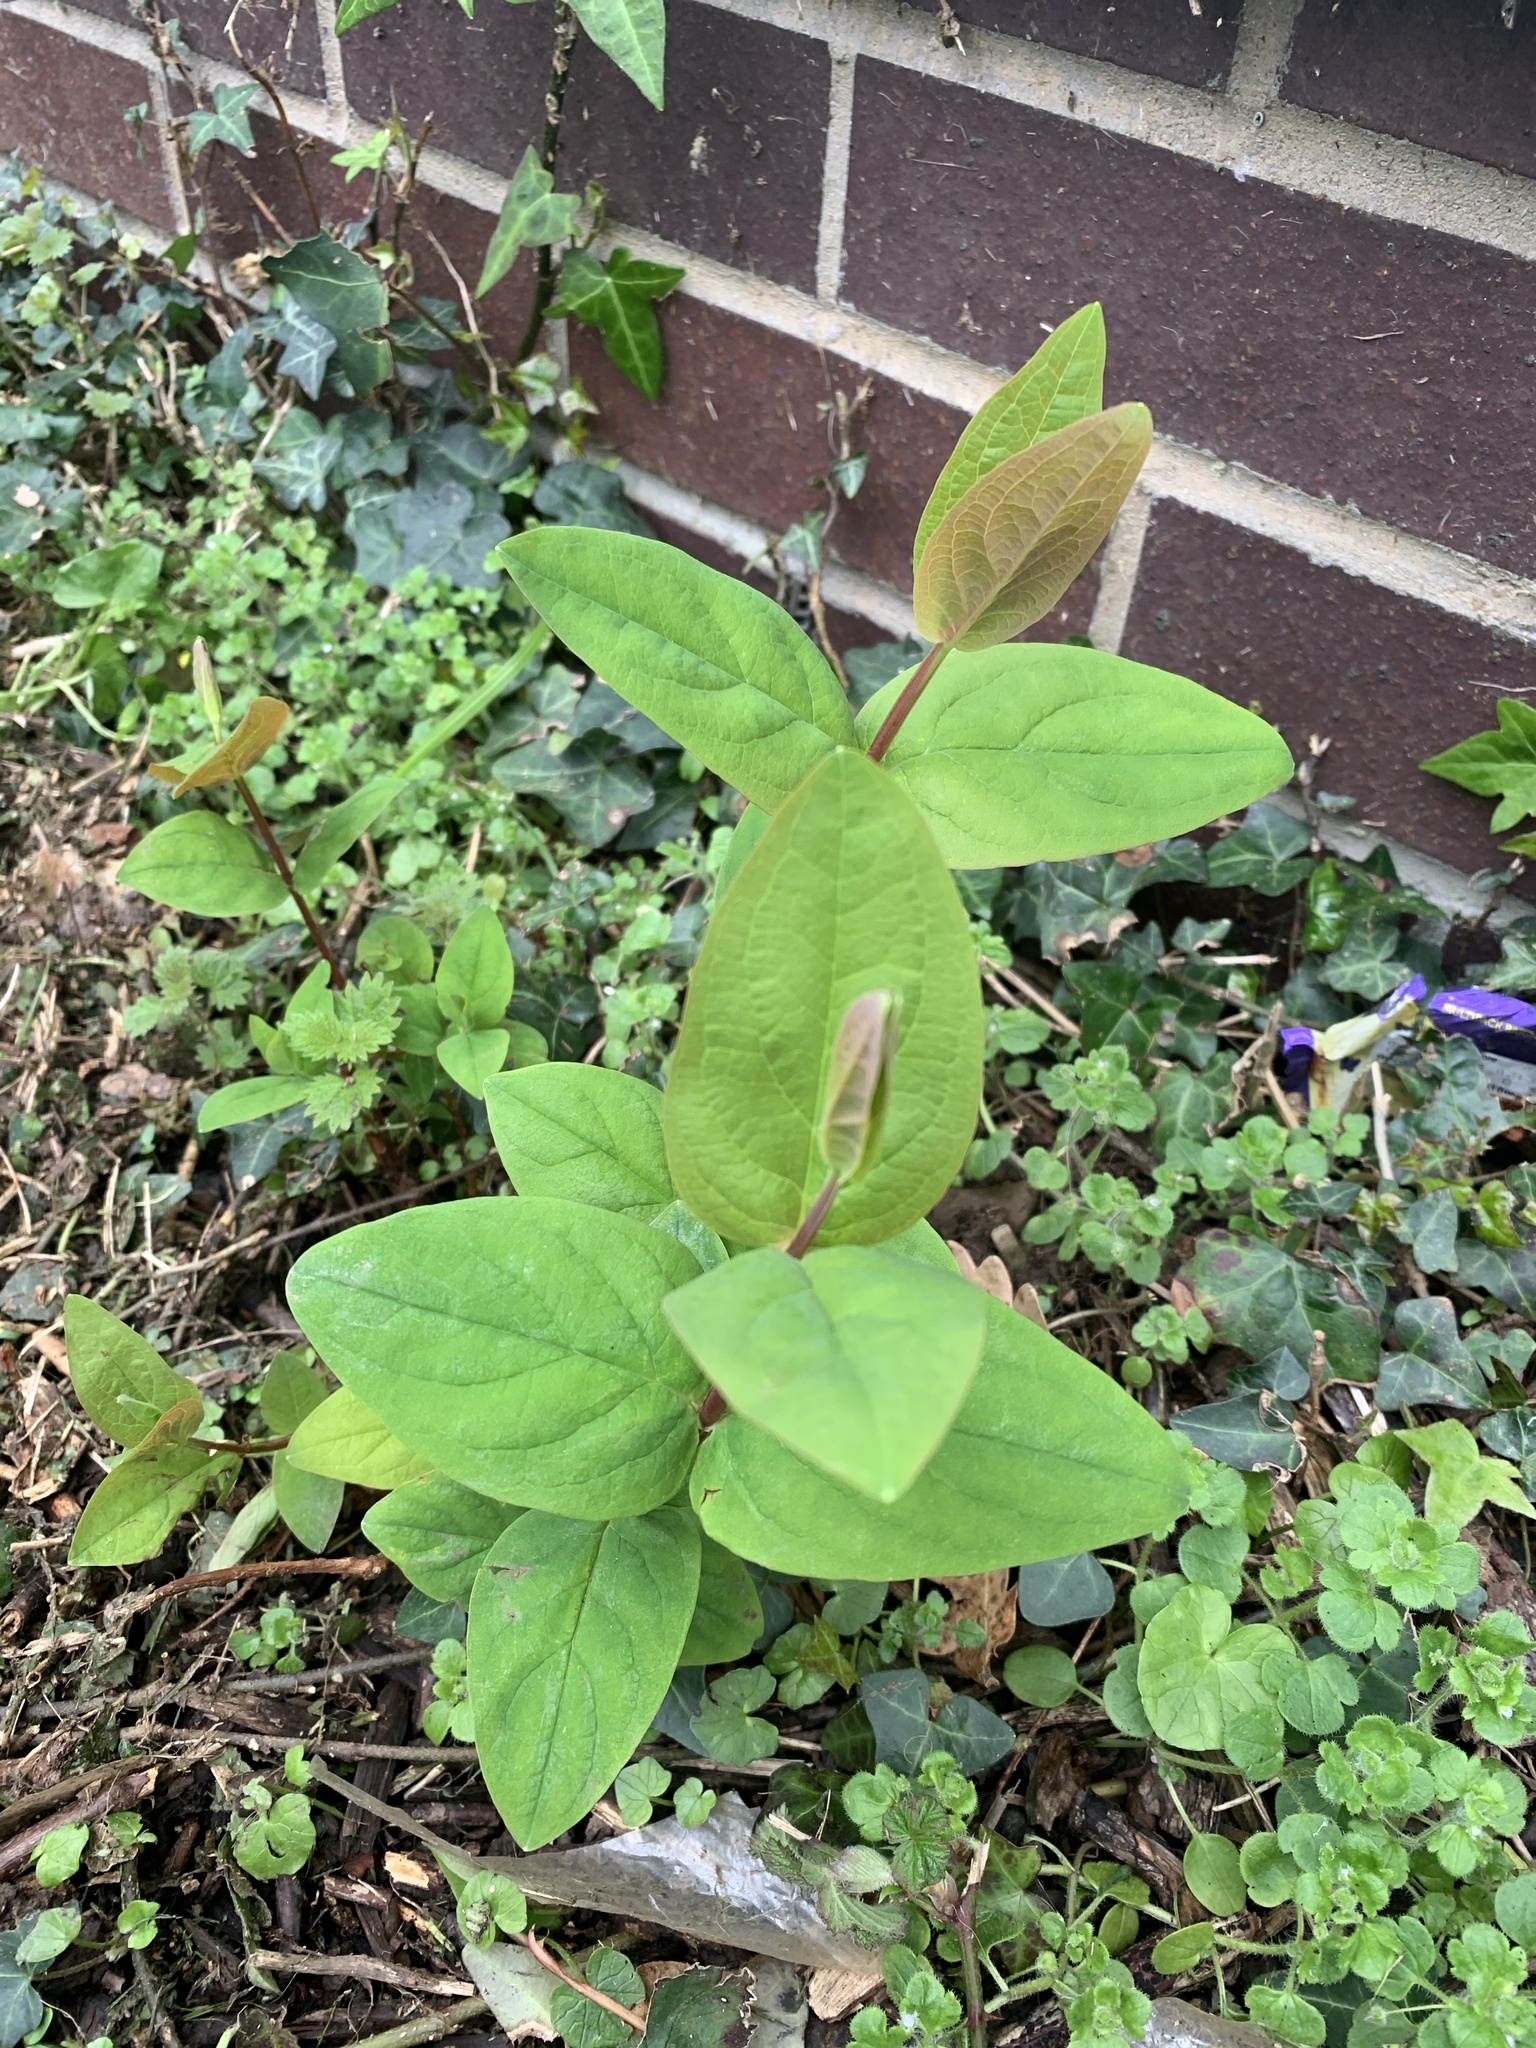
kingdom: Plantae
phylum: Tracheophyta
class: Magnoliopsida
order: Malpighiales
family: Hypericaceae
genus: Hypericum
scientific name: Hypericum androsaemum
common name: Sweet-amber
